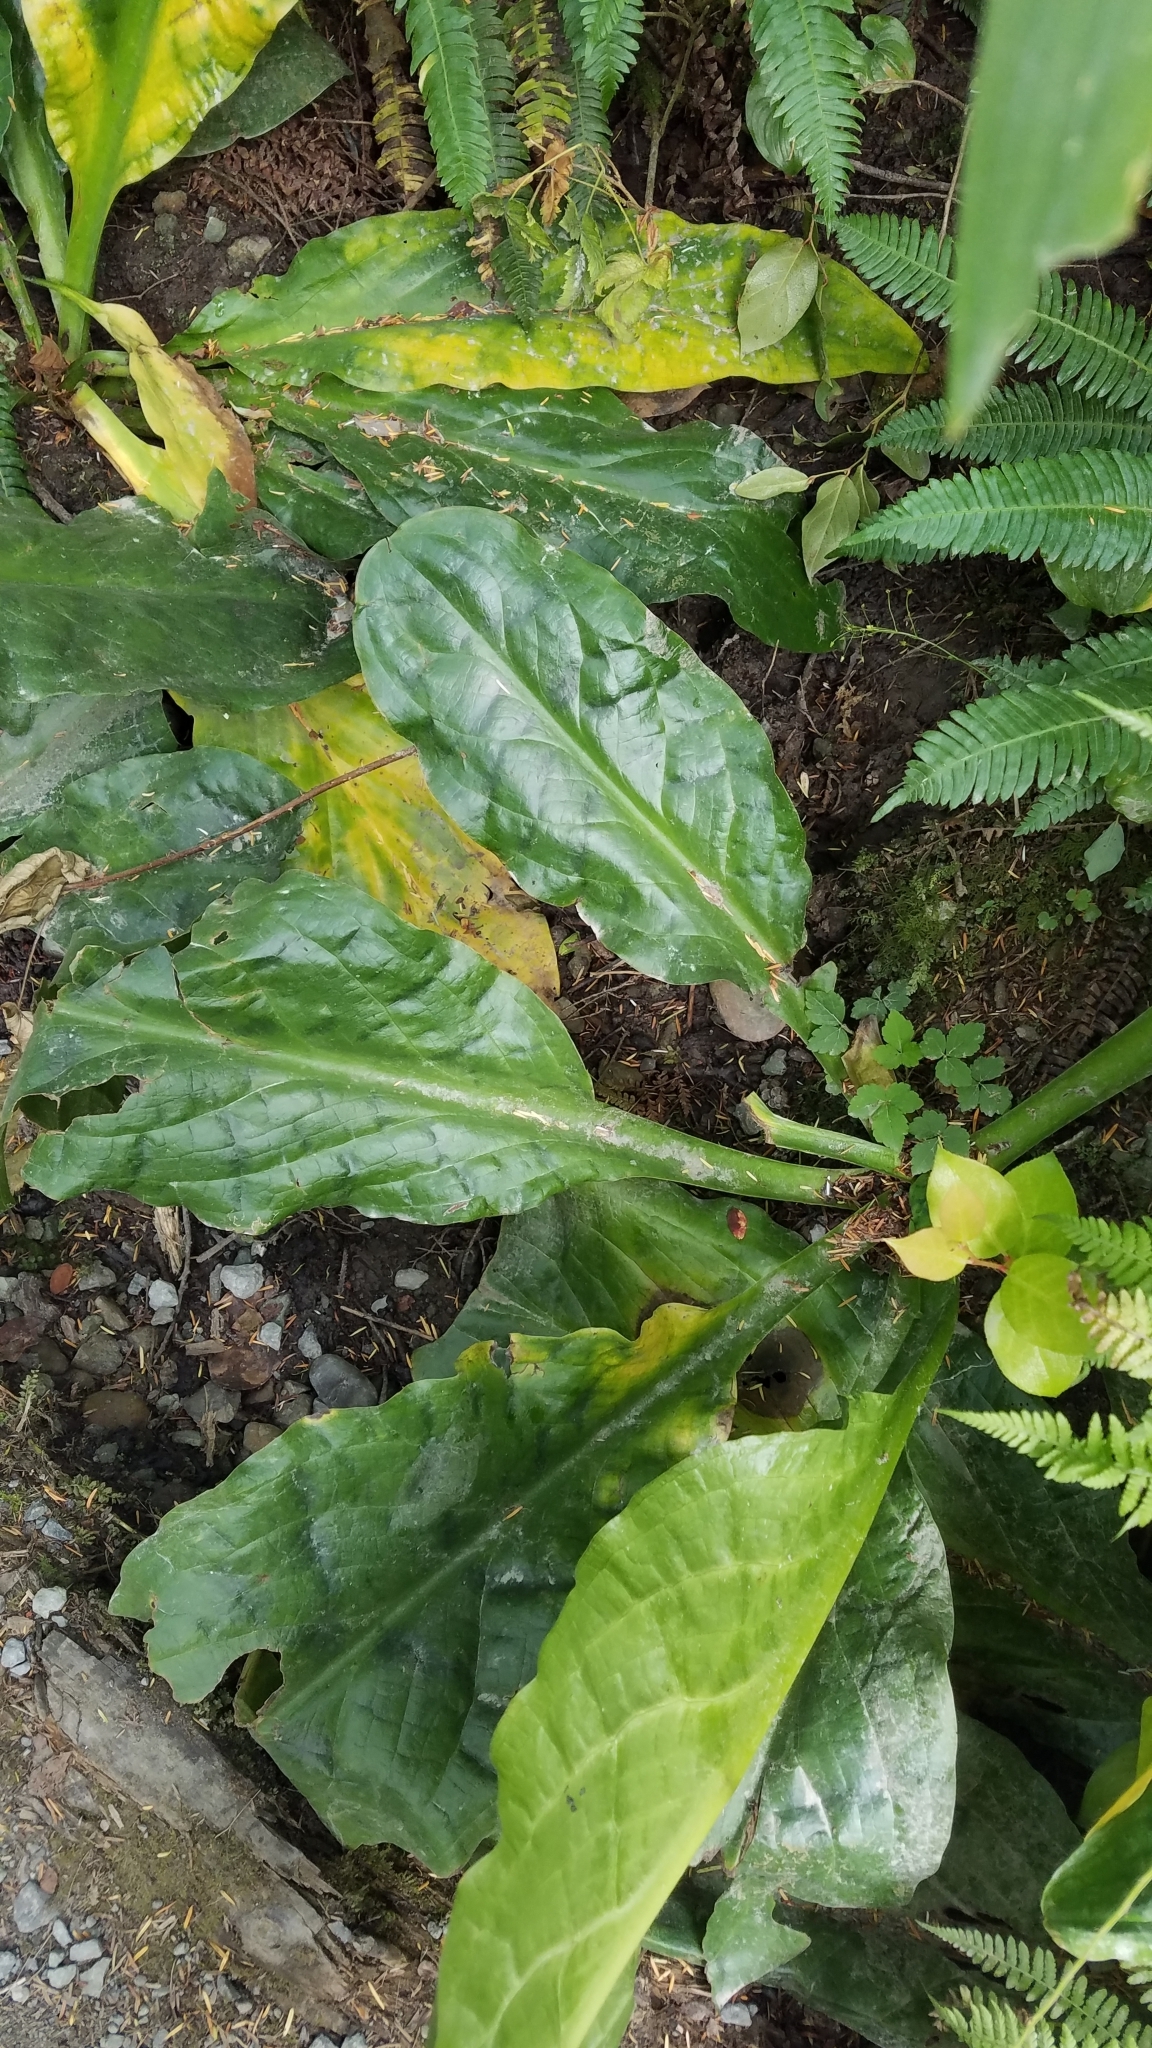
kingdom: Plantae
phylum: Tracheophyta
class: Liliopsida
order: Alismatales
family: Araceae
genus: Lysichiton
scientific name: Lysichiton americanus
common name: American skunk cabbage
